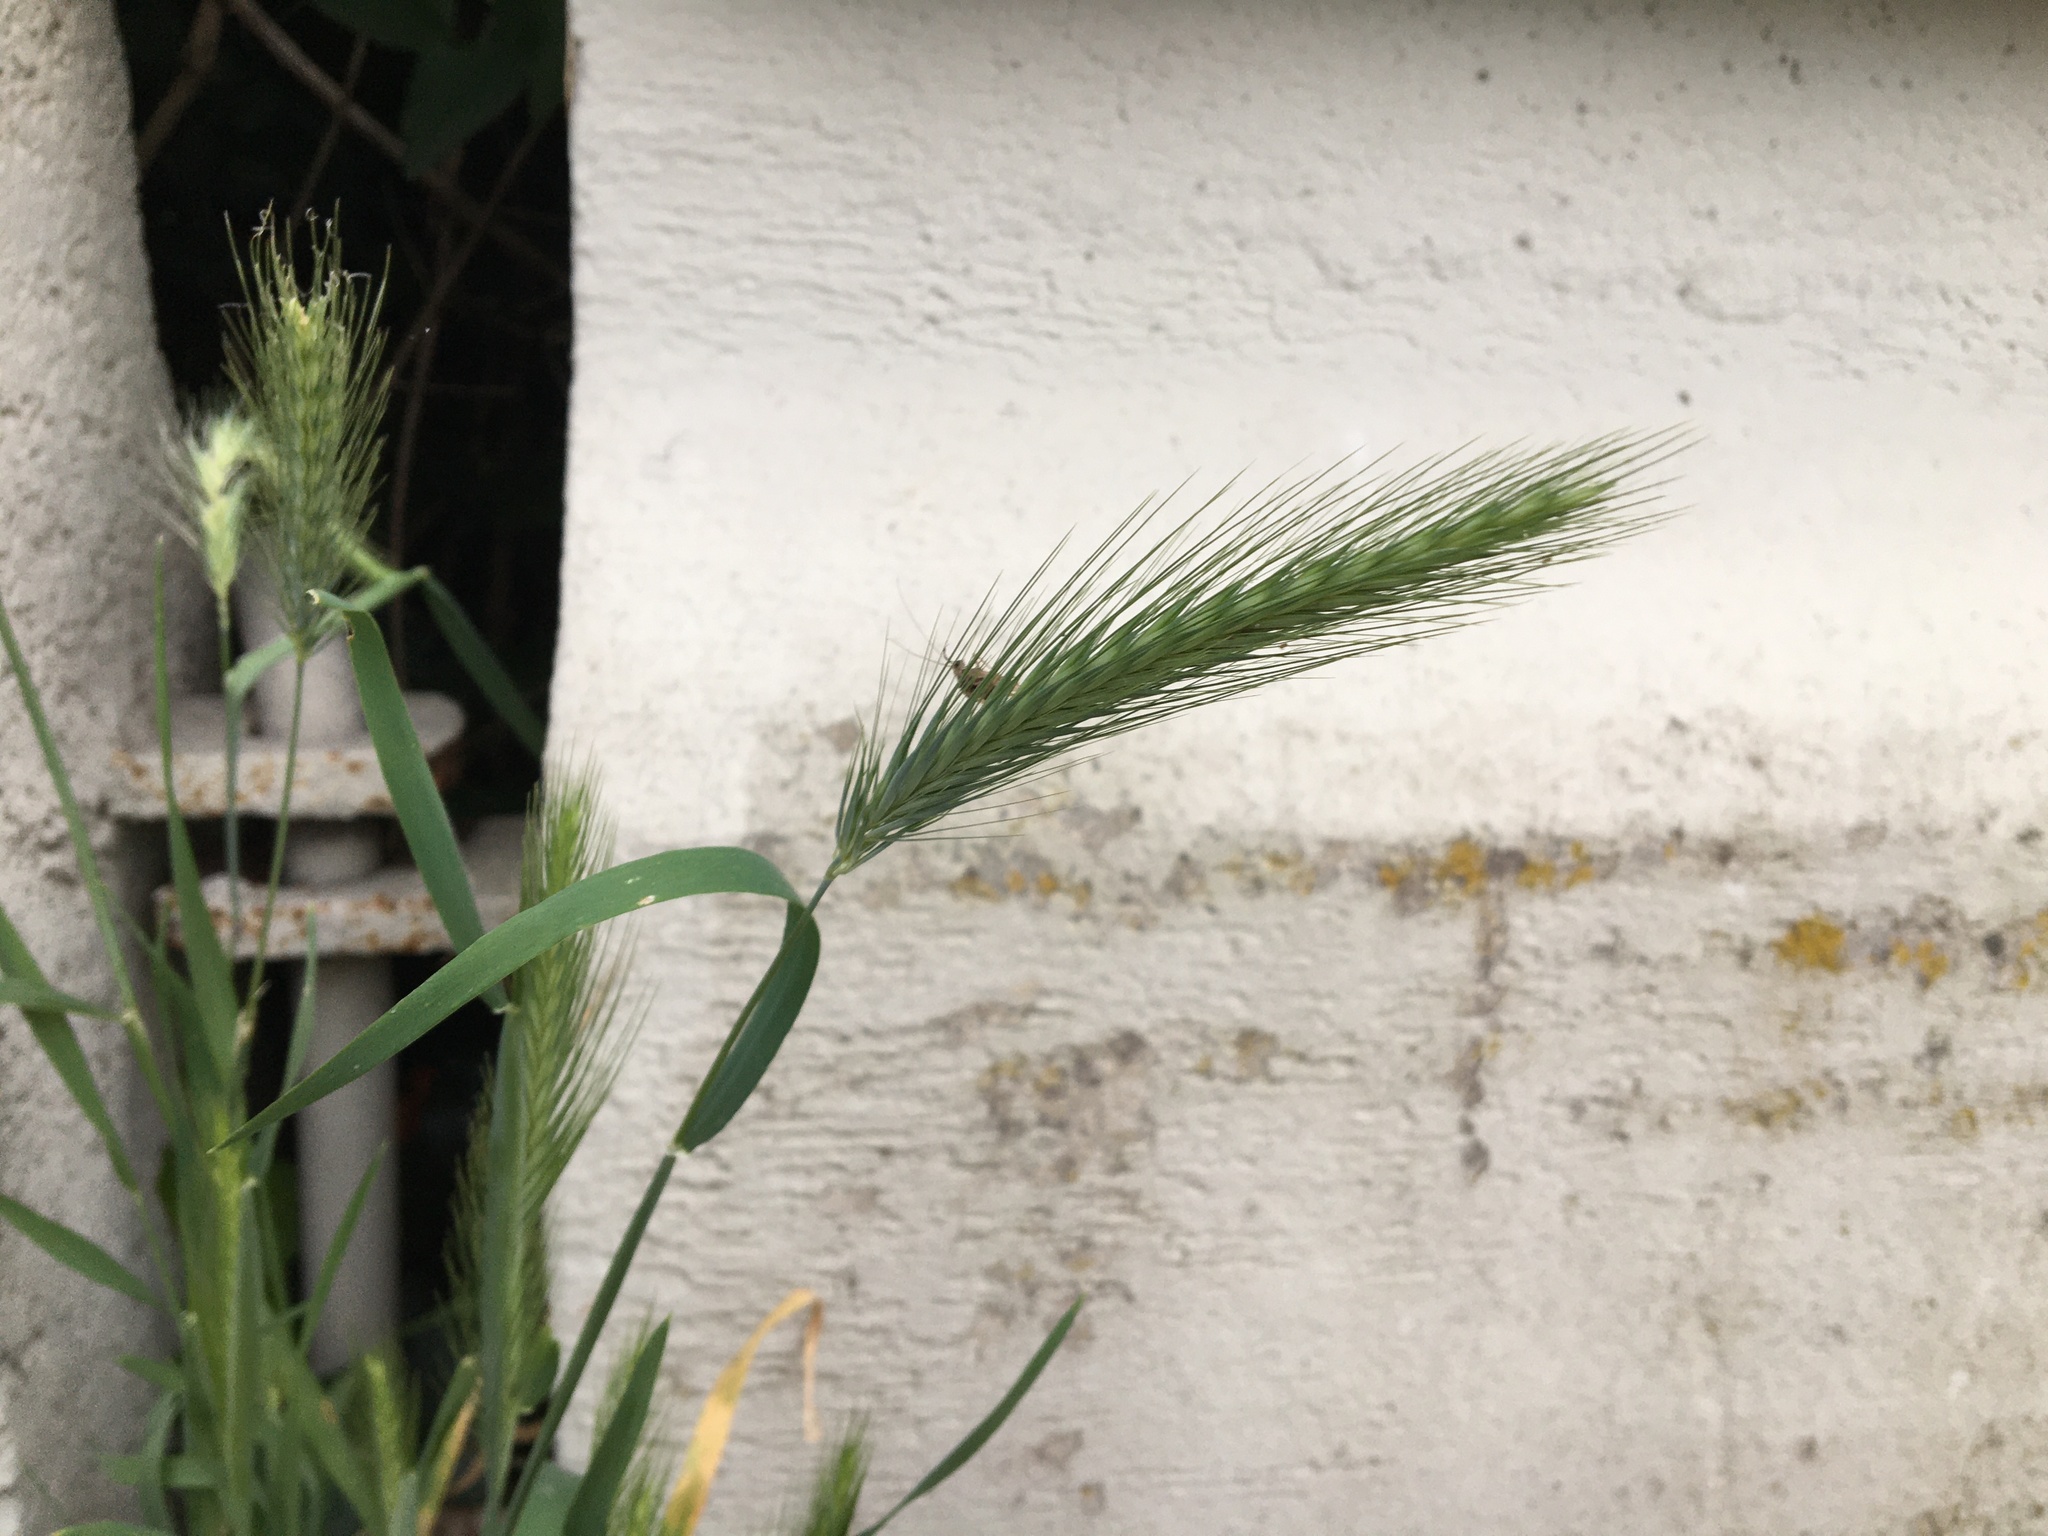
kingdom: Plantae
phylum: Tracheophyta
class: Liliopsida
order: Poales
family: Poaceae
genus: Hordeum
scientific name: Hordeum murinum
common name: Wall barley
